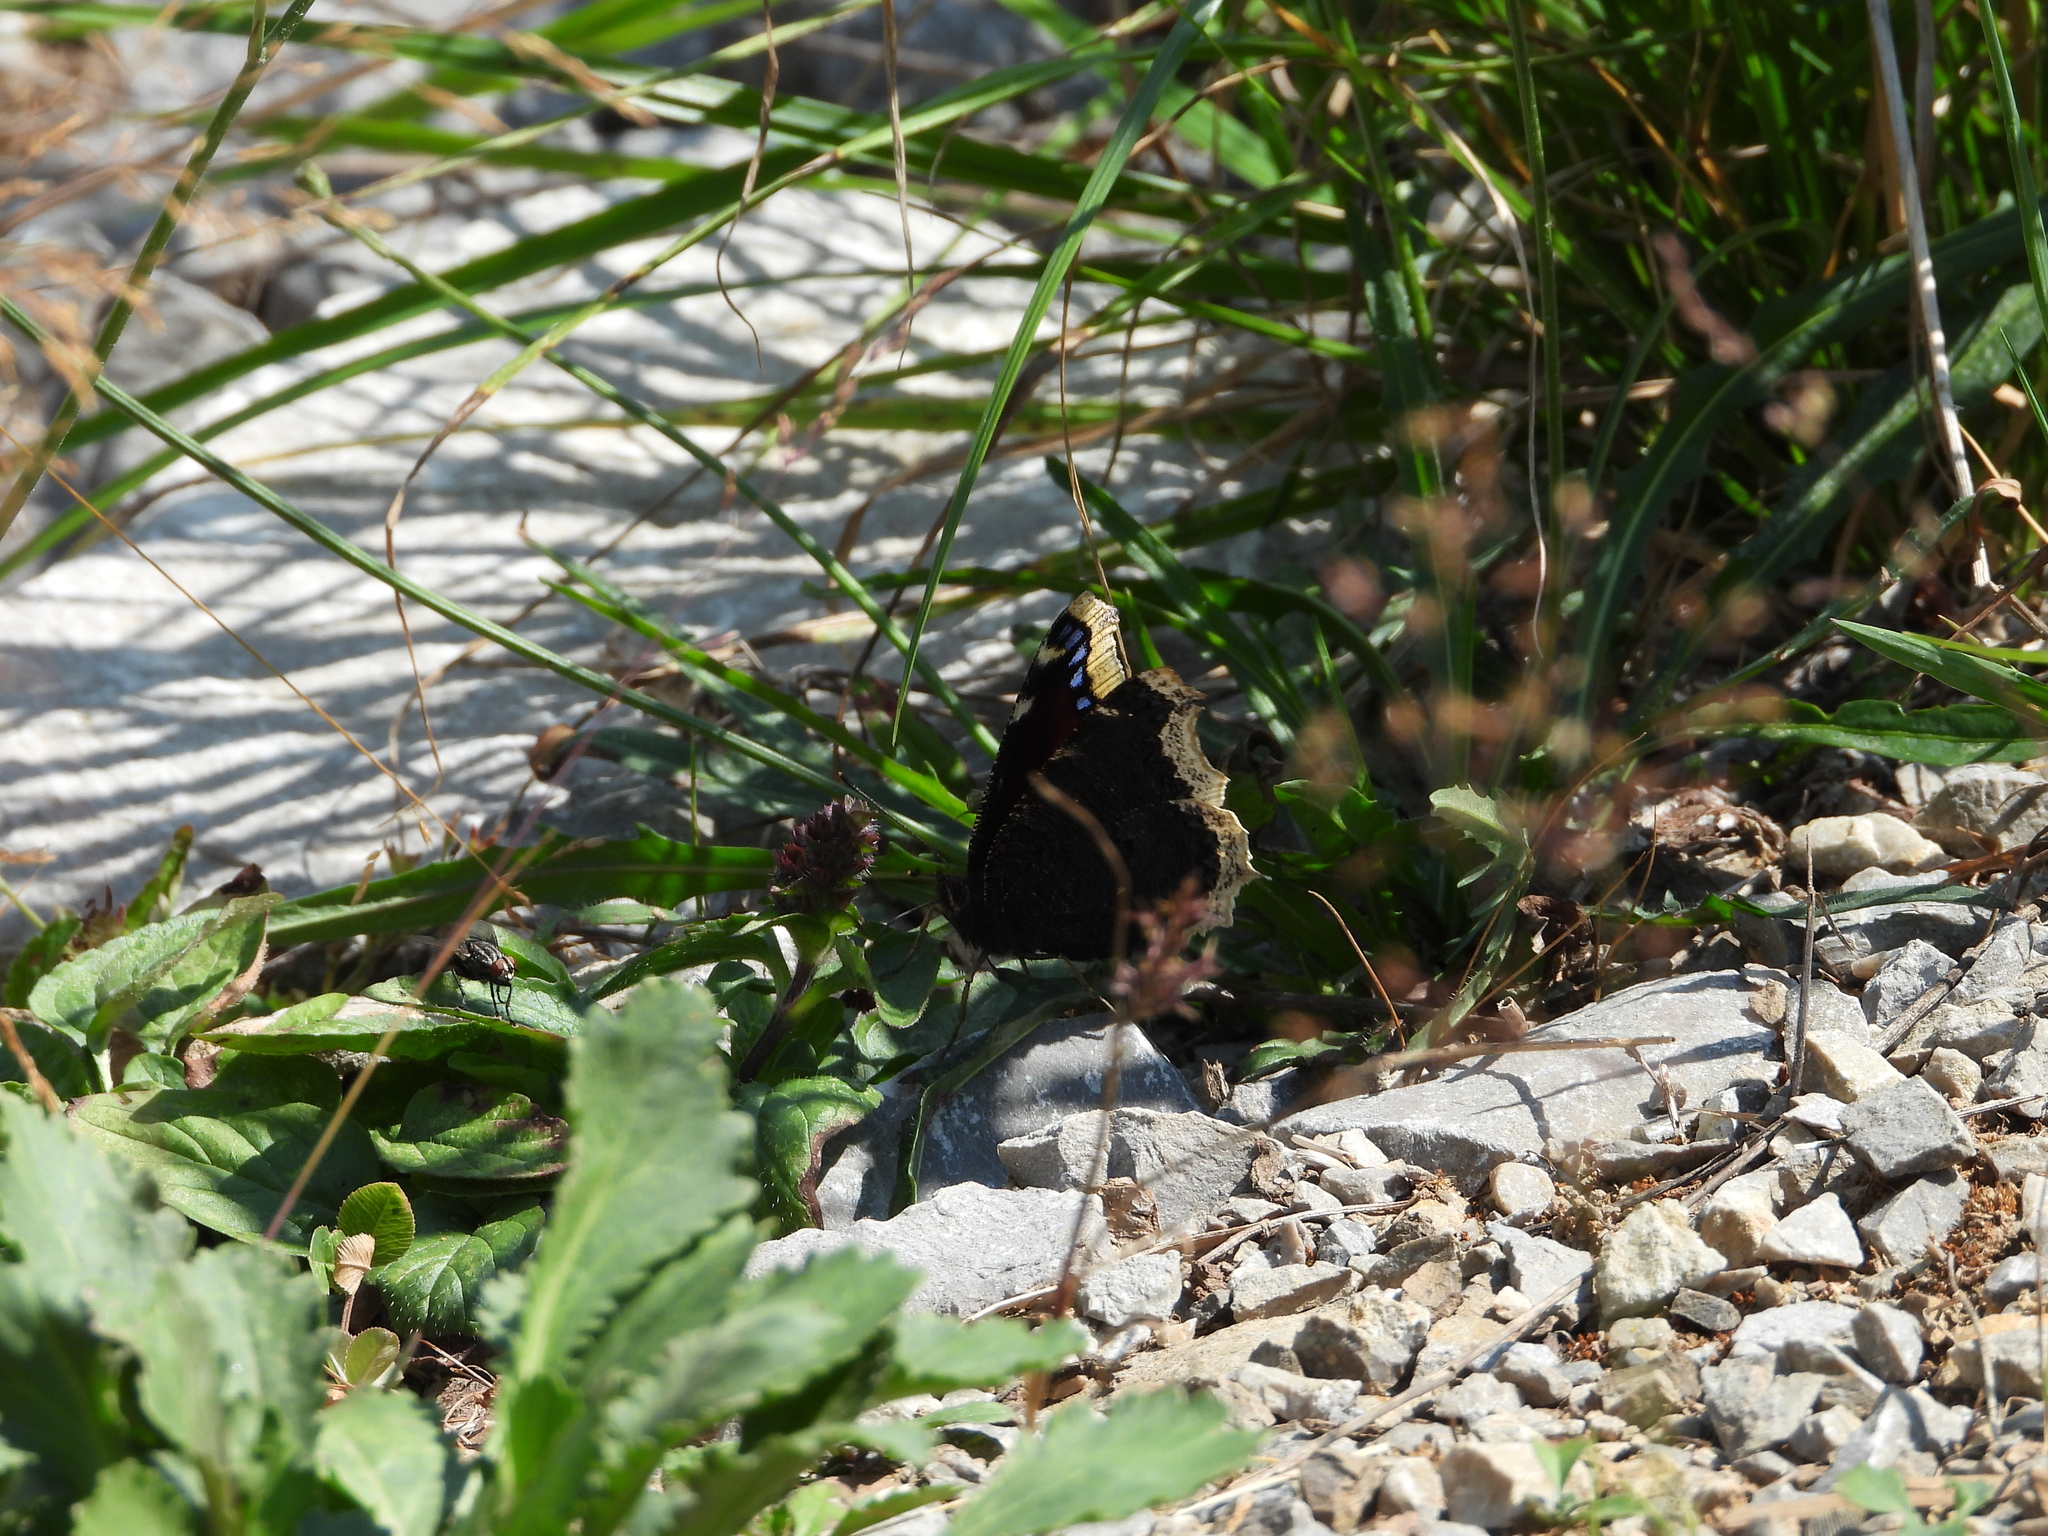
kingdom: Animalia
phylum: Arthropoda
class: Insecta
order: Lepidoptera
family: Nymphalidae
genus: Nymphalis
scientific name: Nymphalis antiopa
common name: Camberwell beauty
